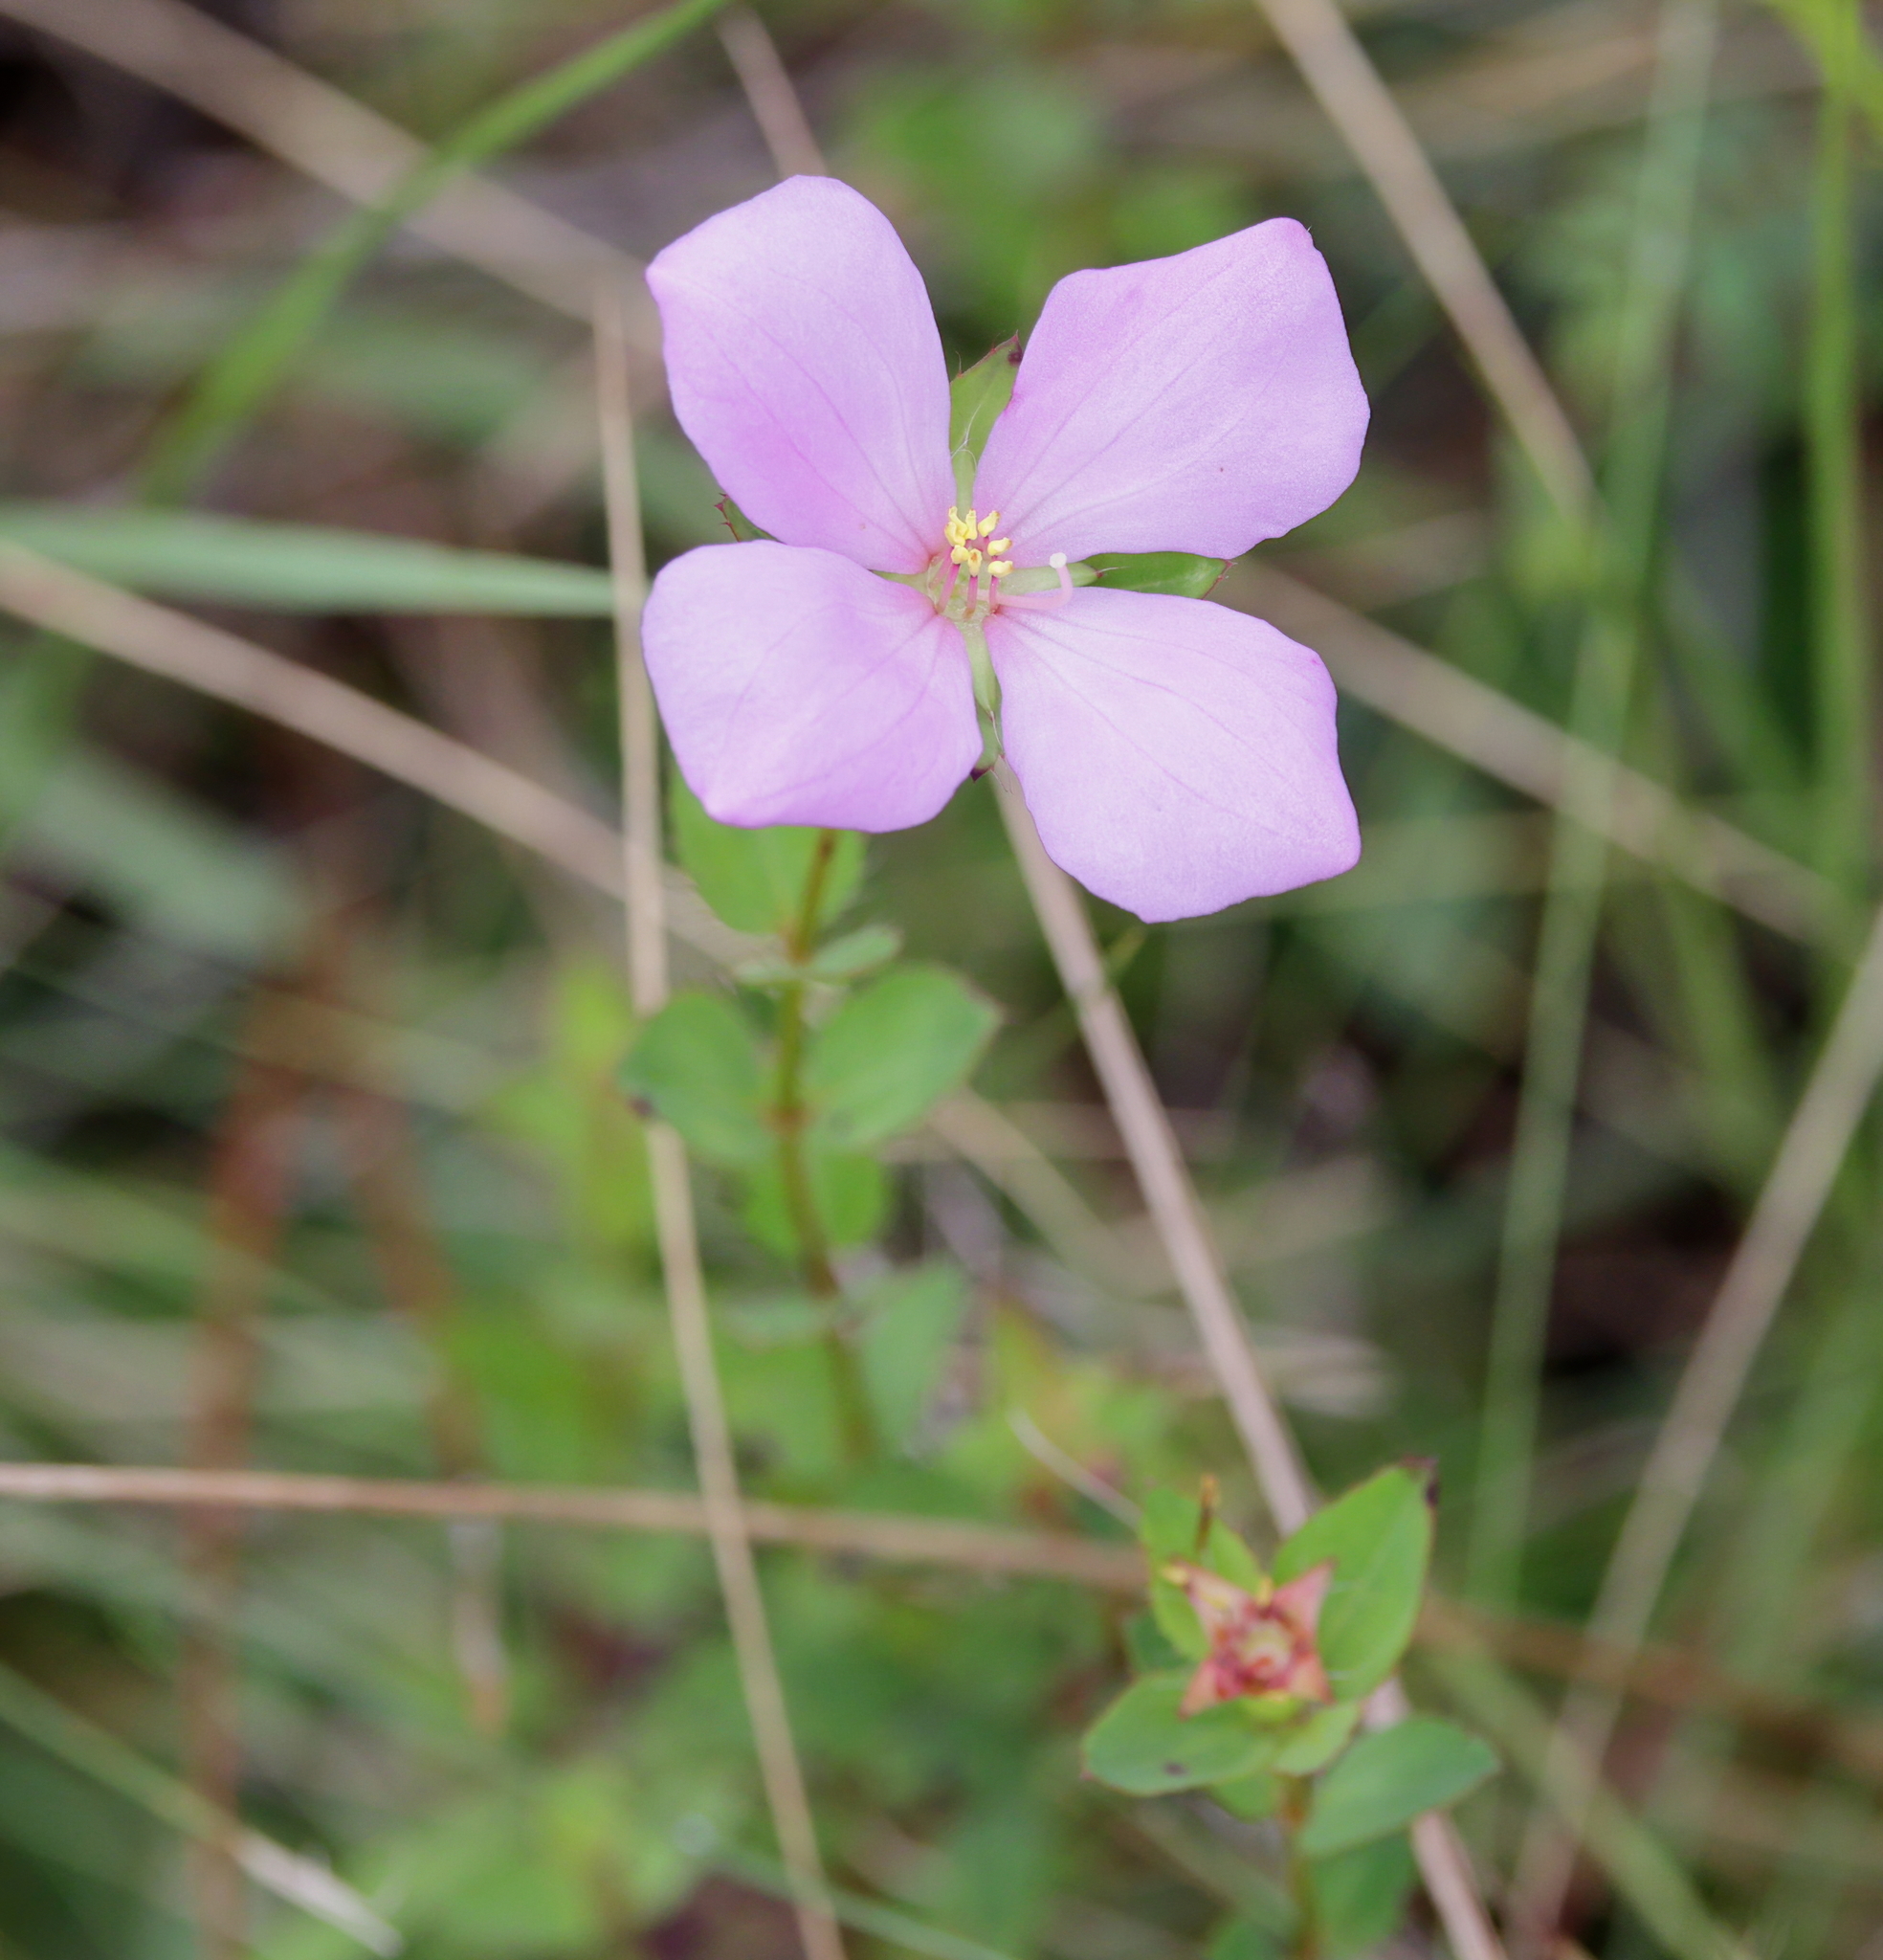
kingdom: Plantae
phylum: Tracheophyta
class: Magnoliopsida
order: Myrtales
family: Melastomataceae
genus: Rhexia
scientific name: Rhexia petiolata
